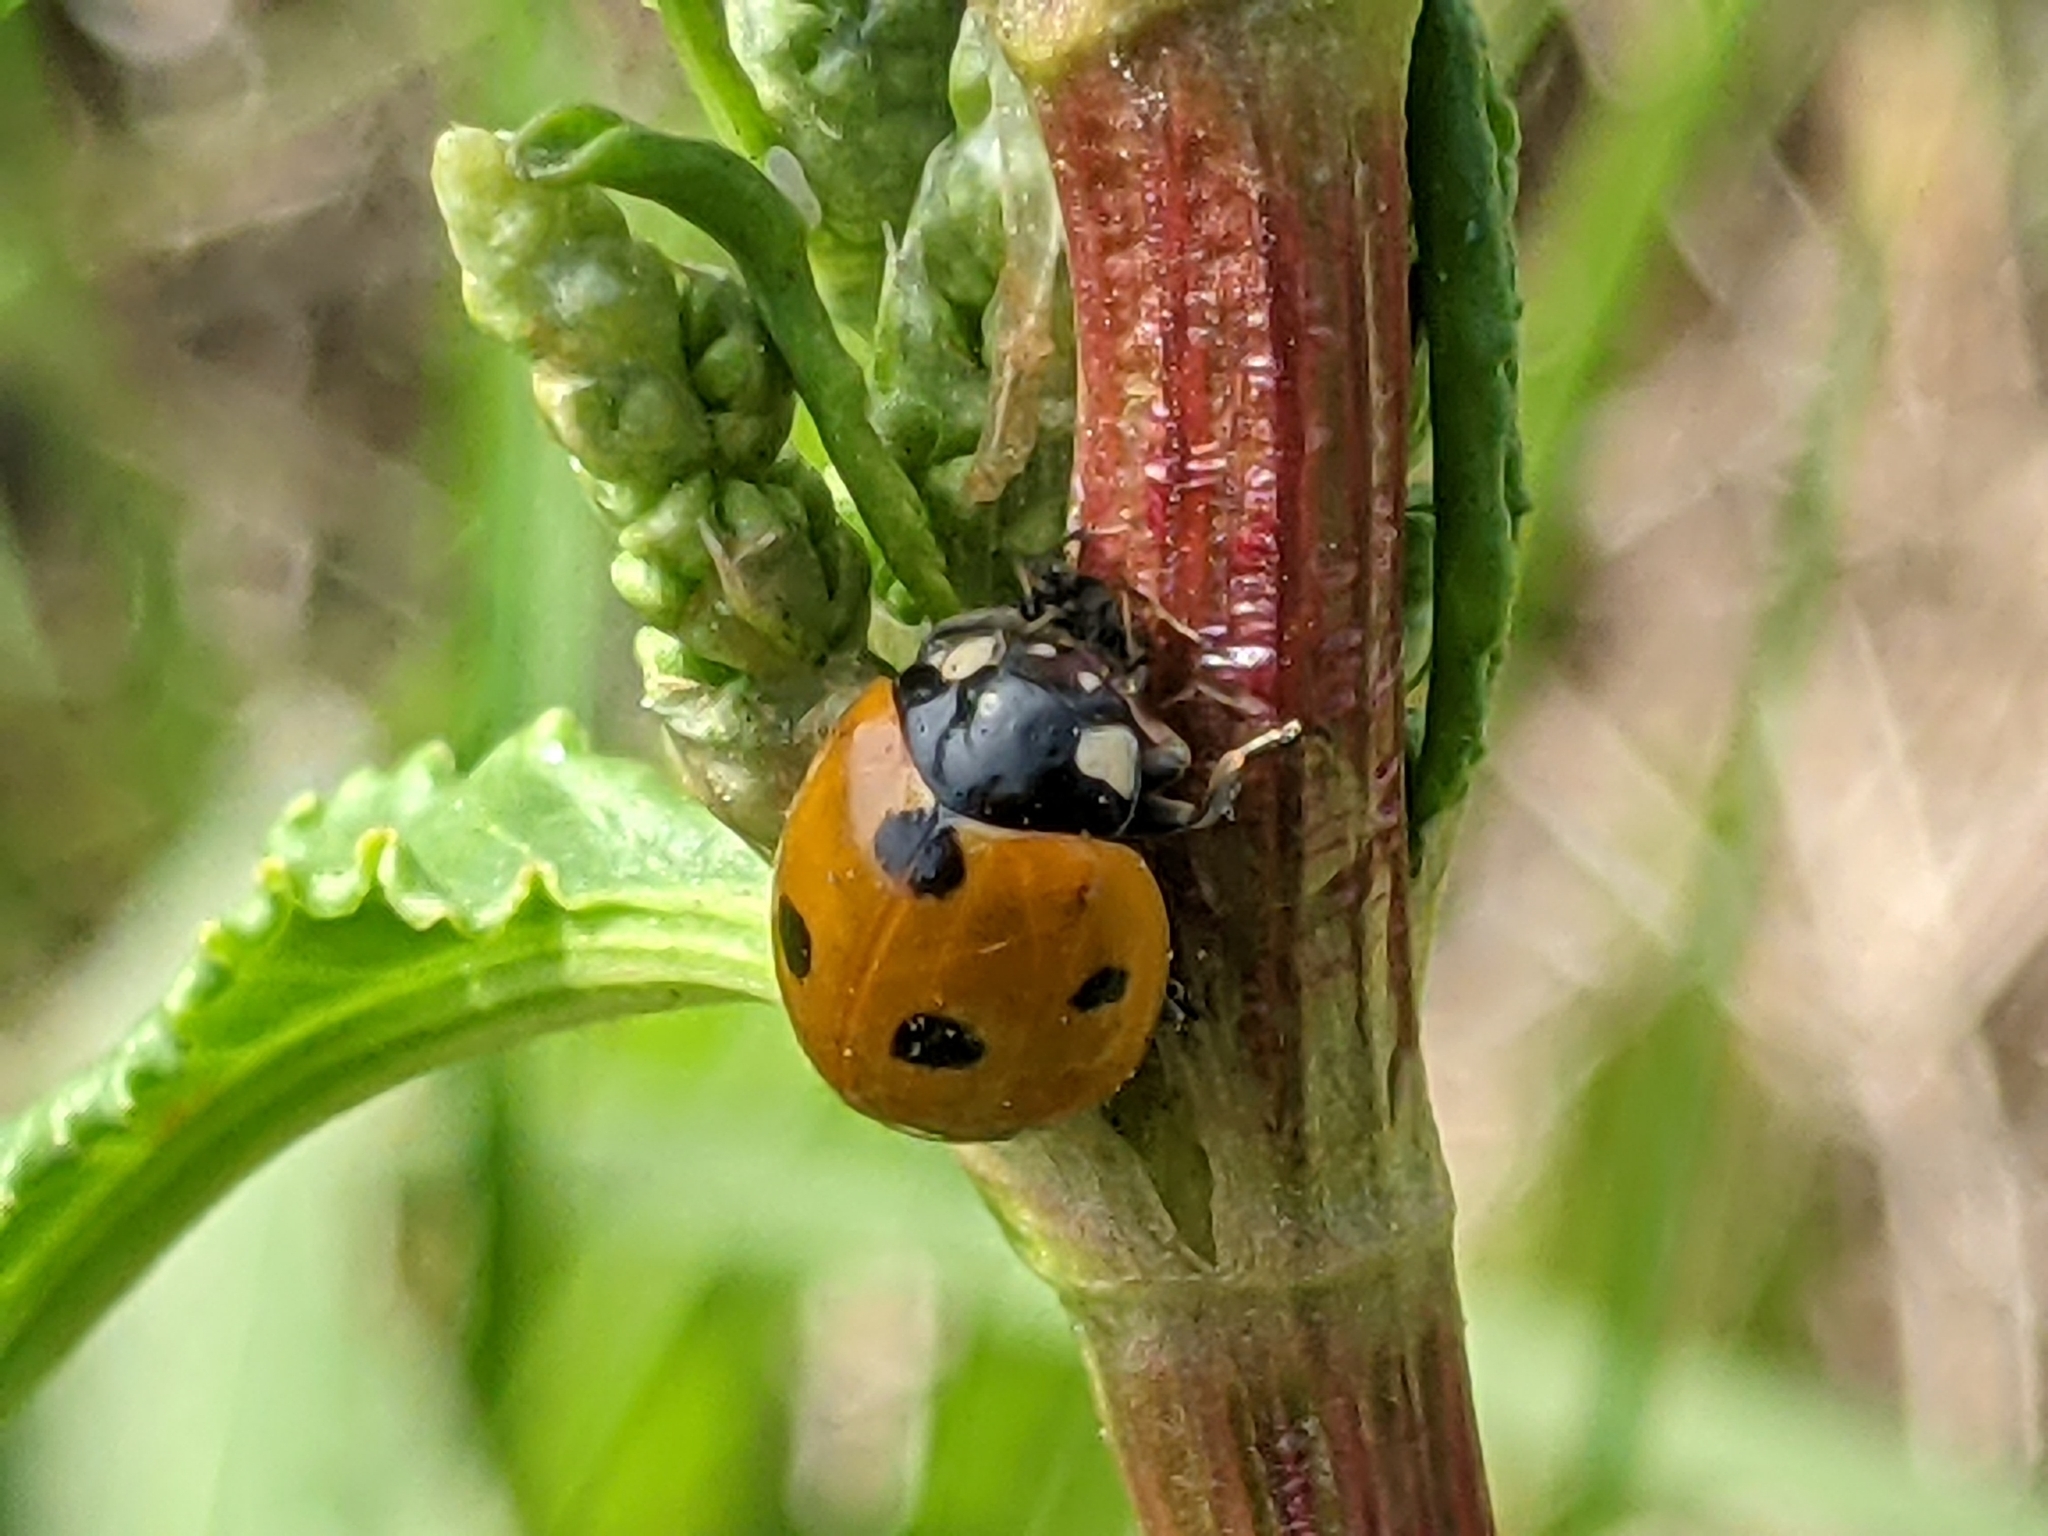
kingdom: Animalia
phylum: Arthropoda
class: Insecta
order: Coleoptera
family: Coccinellidae
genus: Coccinella
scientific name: Coccinella septempunctata
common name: Sevenspotted lady beetle
